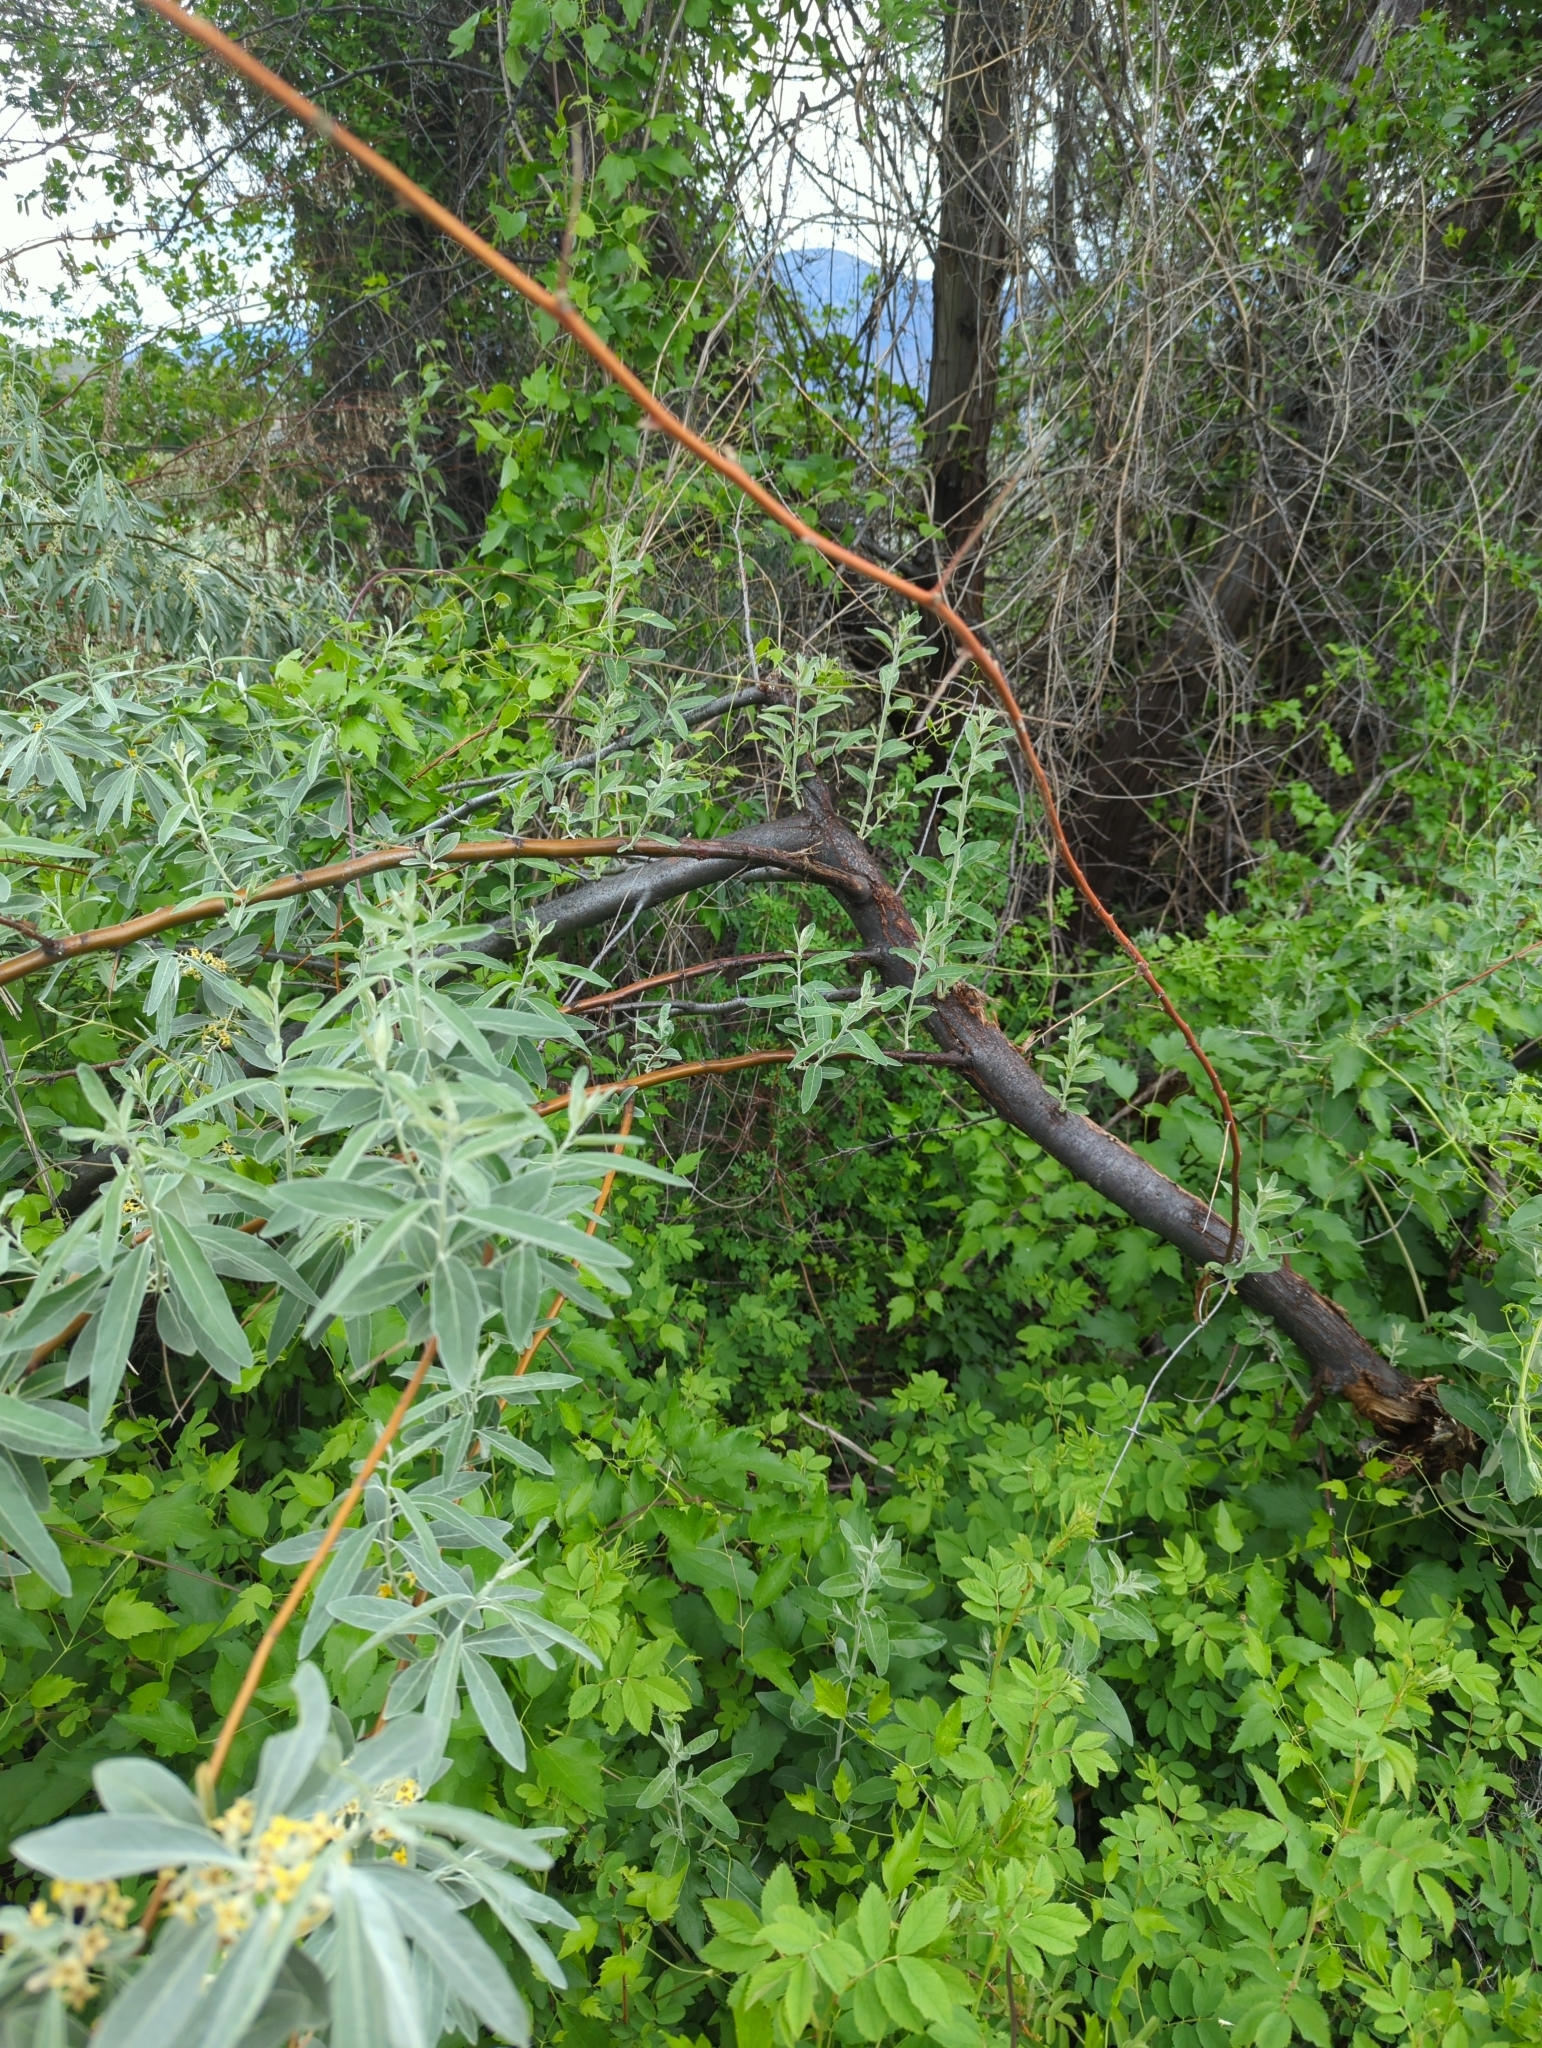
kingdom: Plantae
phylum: Tracheophyta
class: Magnoliopsida
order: Rosales
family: Elaeagnaceae
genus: Elaeagnus
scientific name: Elaeagnus angustifolia
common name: Russian olive
